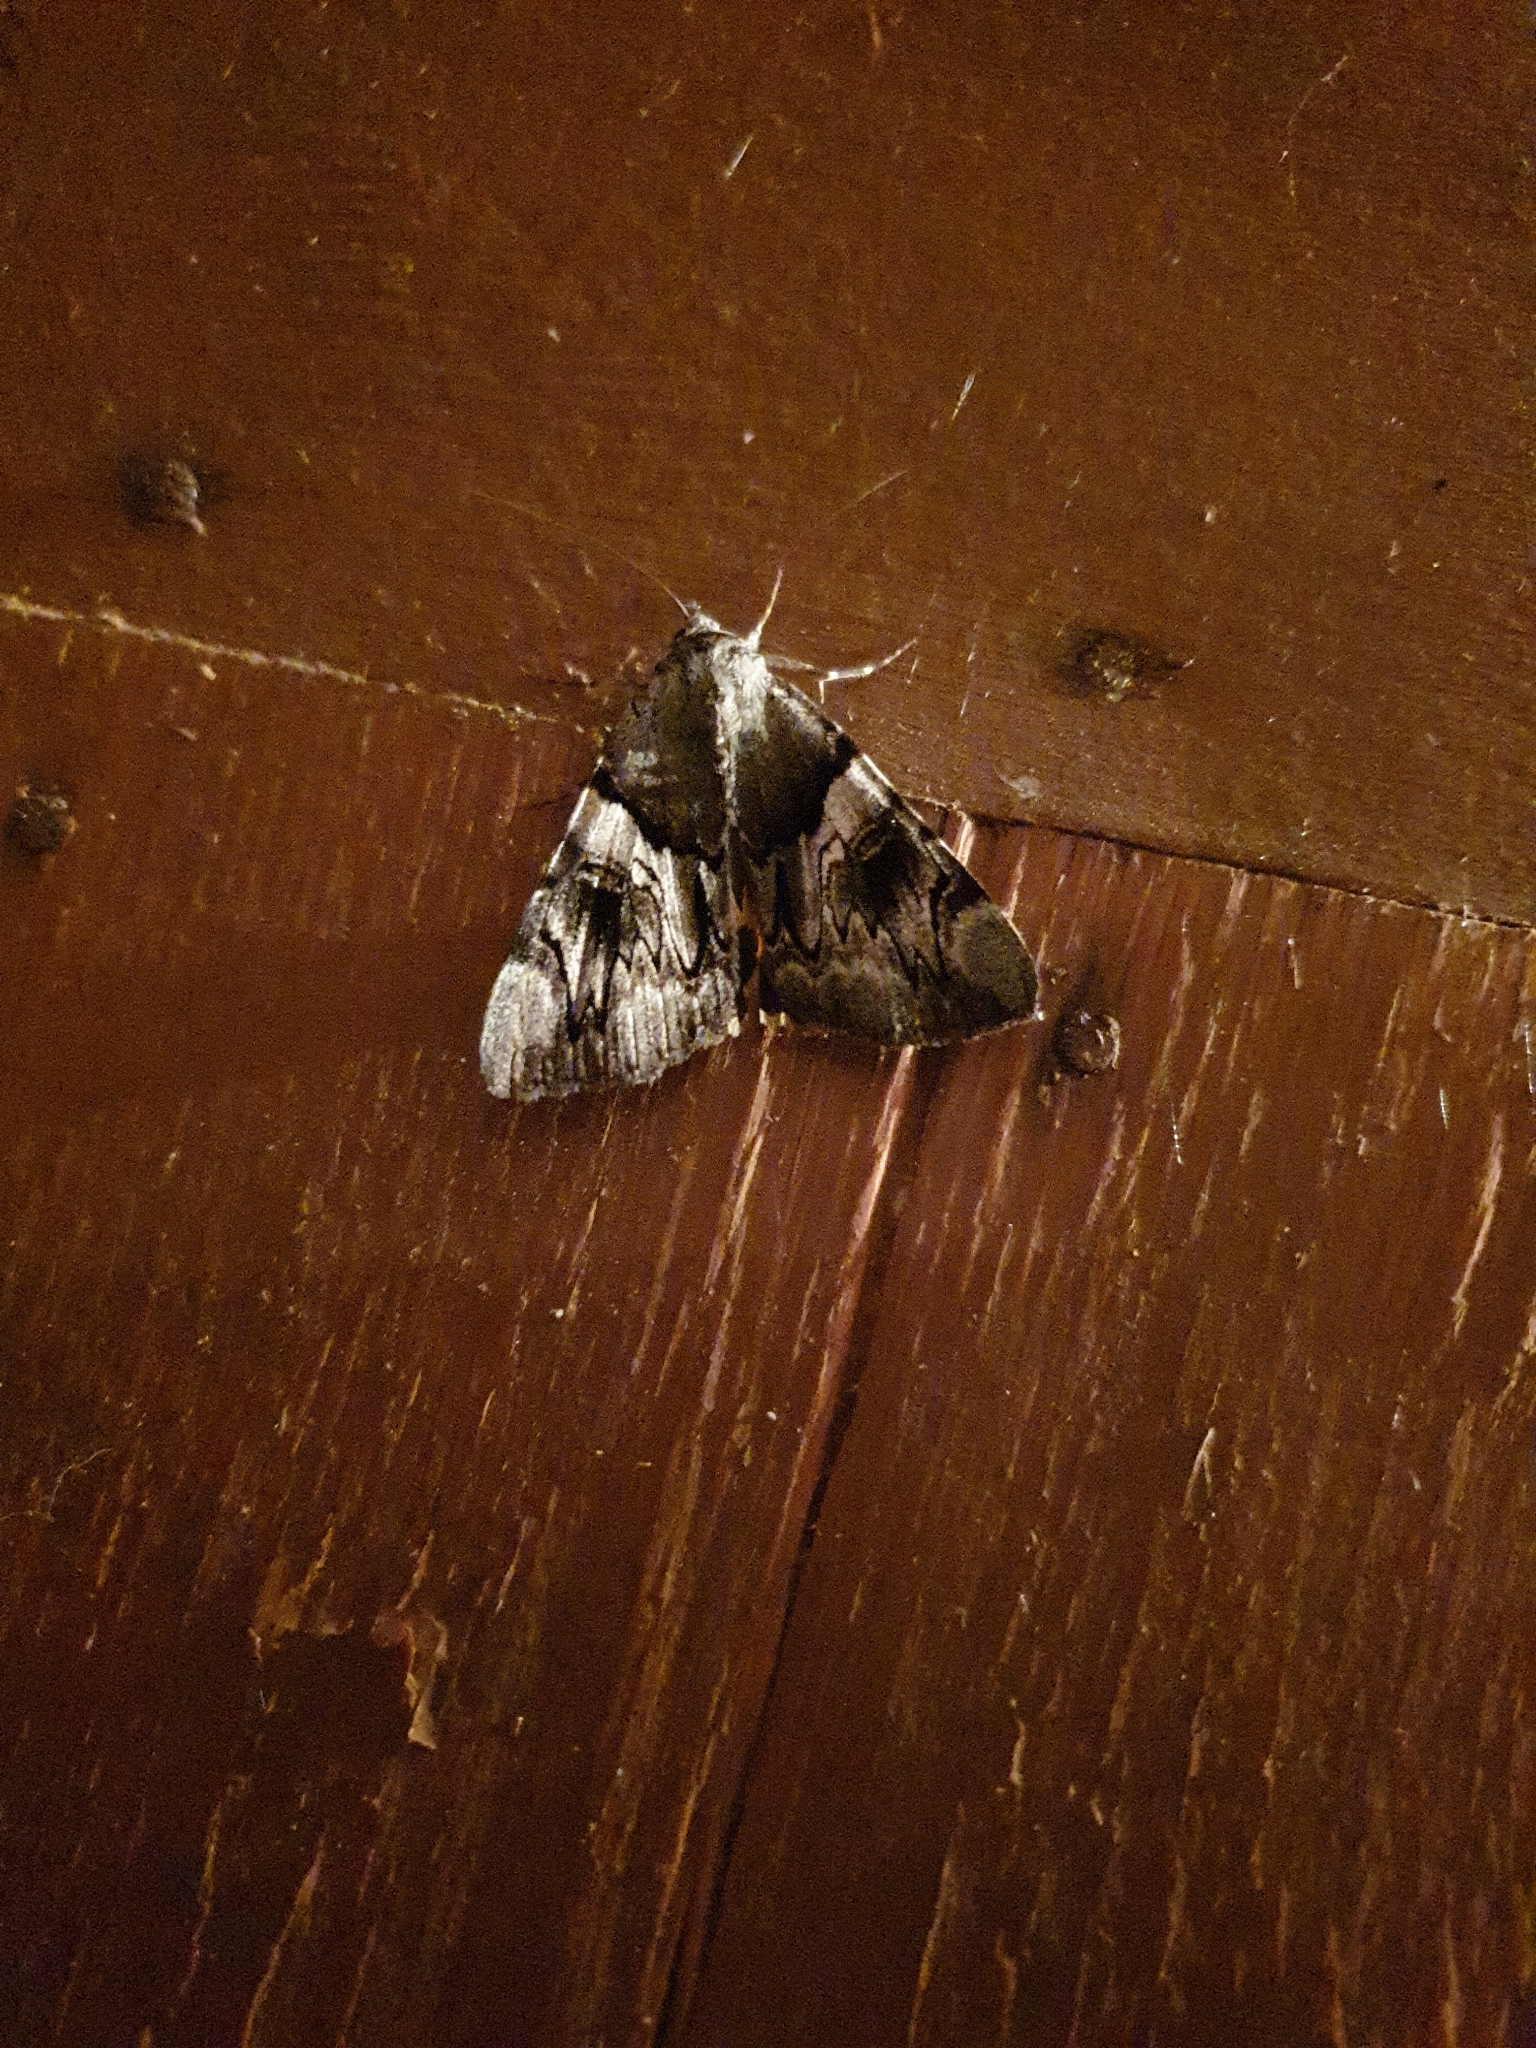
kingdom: Animalia
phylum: Arthropoda
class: Insecta
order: Lepidoptera
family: Erebidae
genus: Catocala
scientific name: Catocala fulminea
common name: Yellow bands underwing
